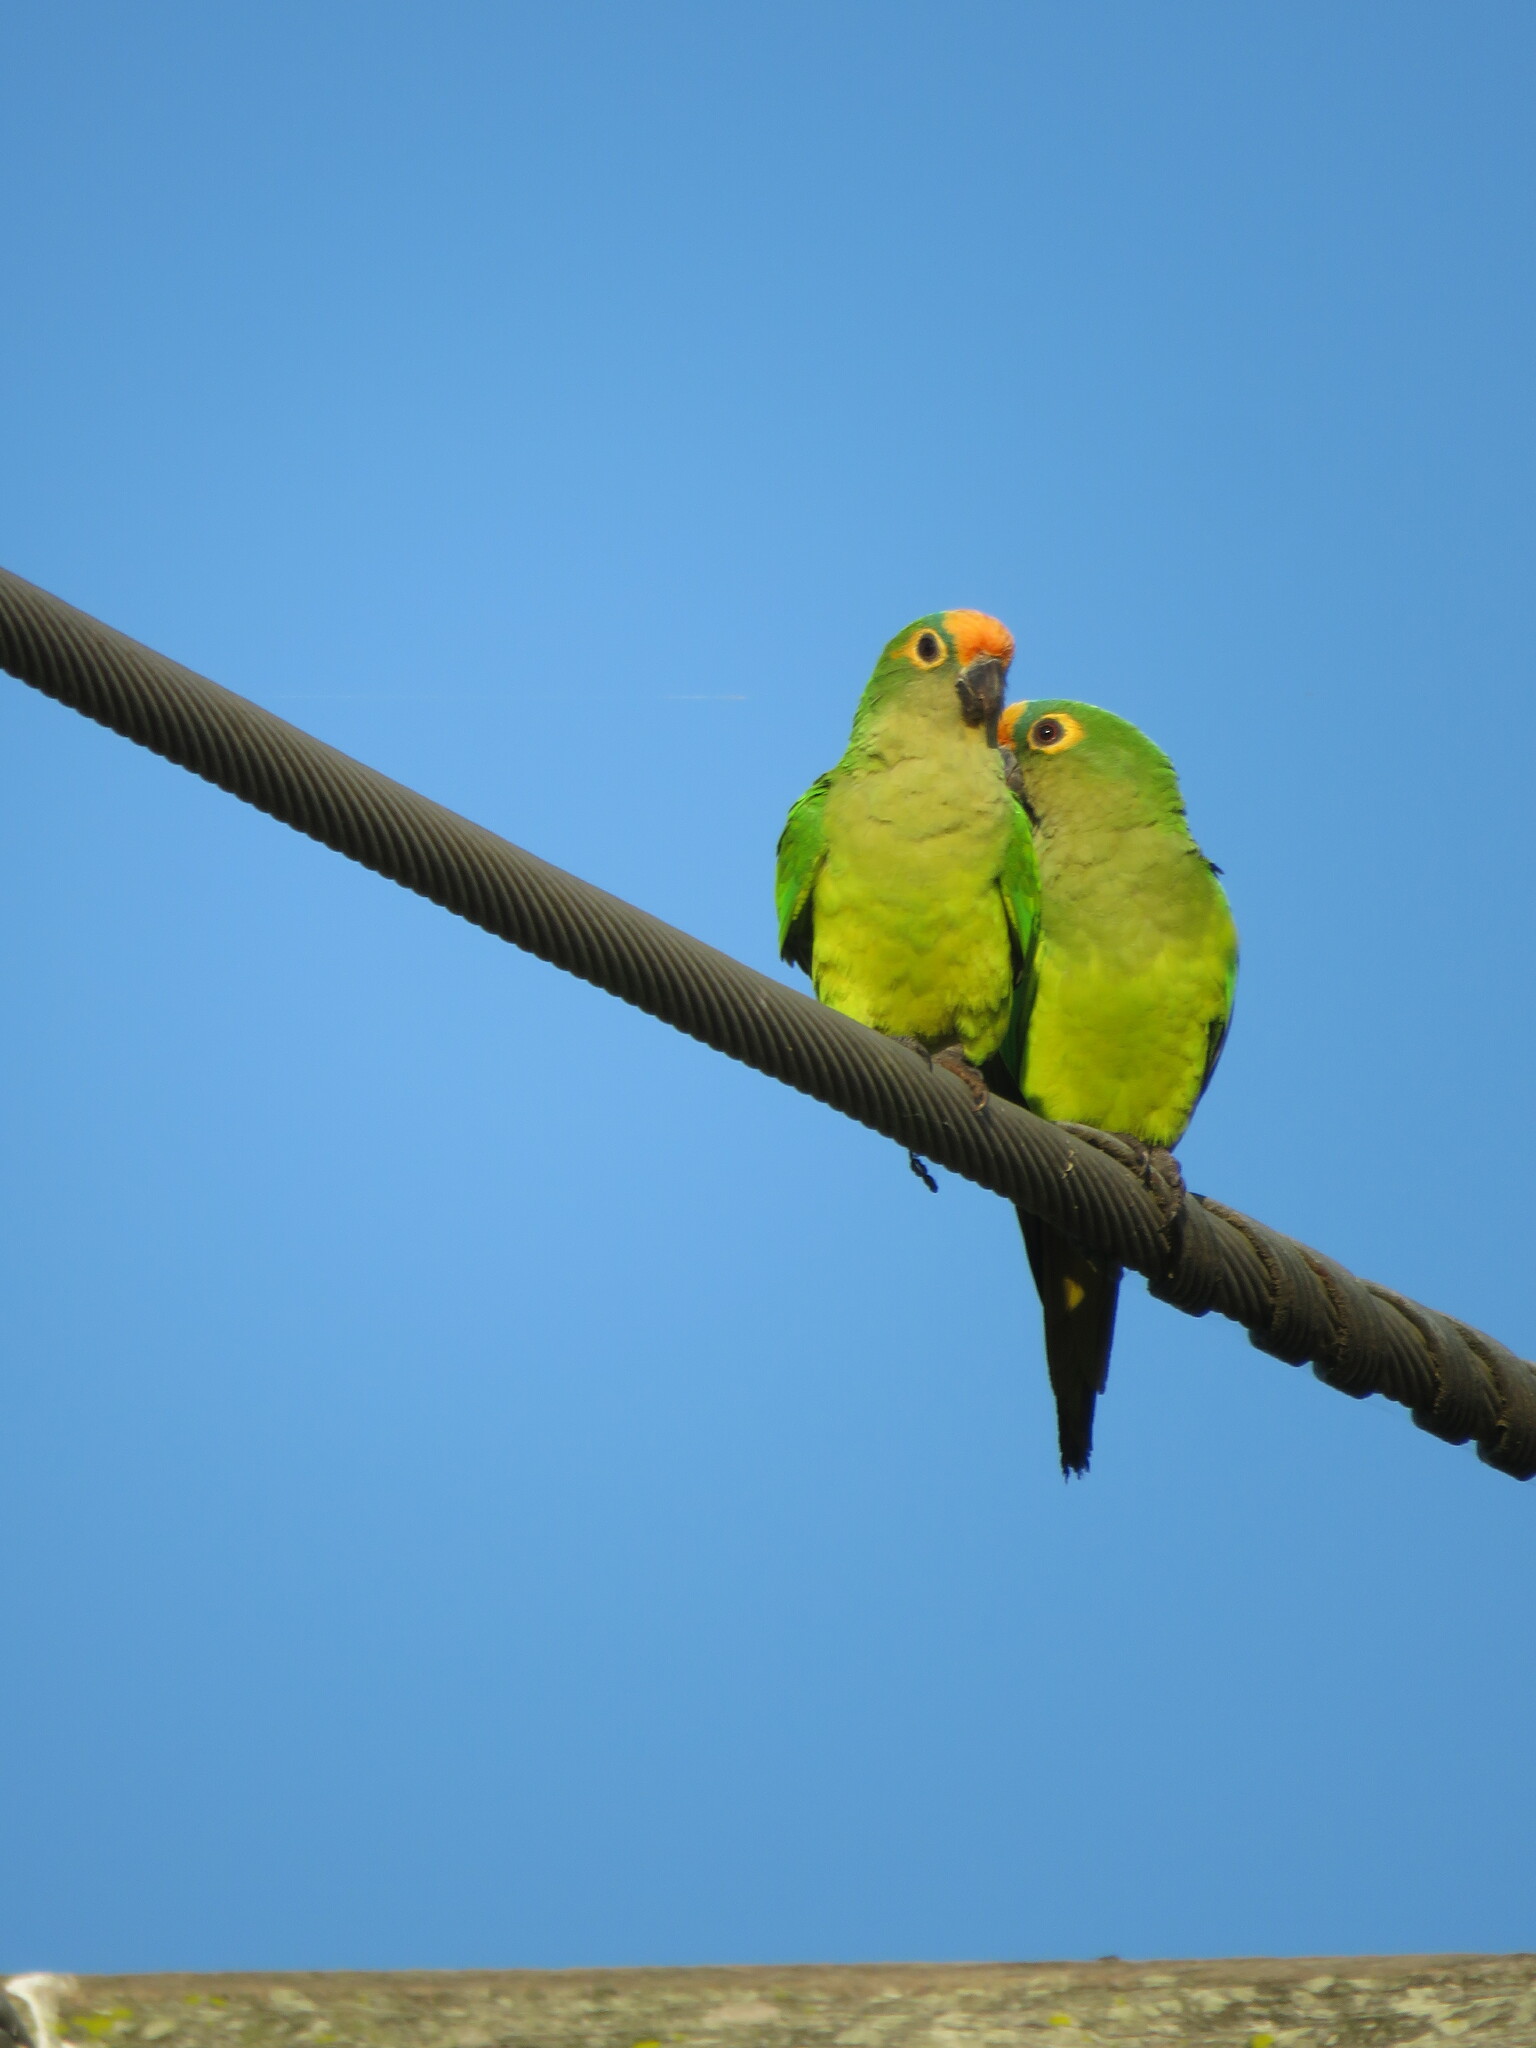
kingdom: Animalia
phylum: Chordata
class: Aves
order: Psittaciformes
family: Psittacidae
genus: Aratinga
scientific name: Aratinga aurea
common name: Peach-fronted parakeet
